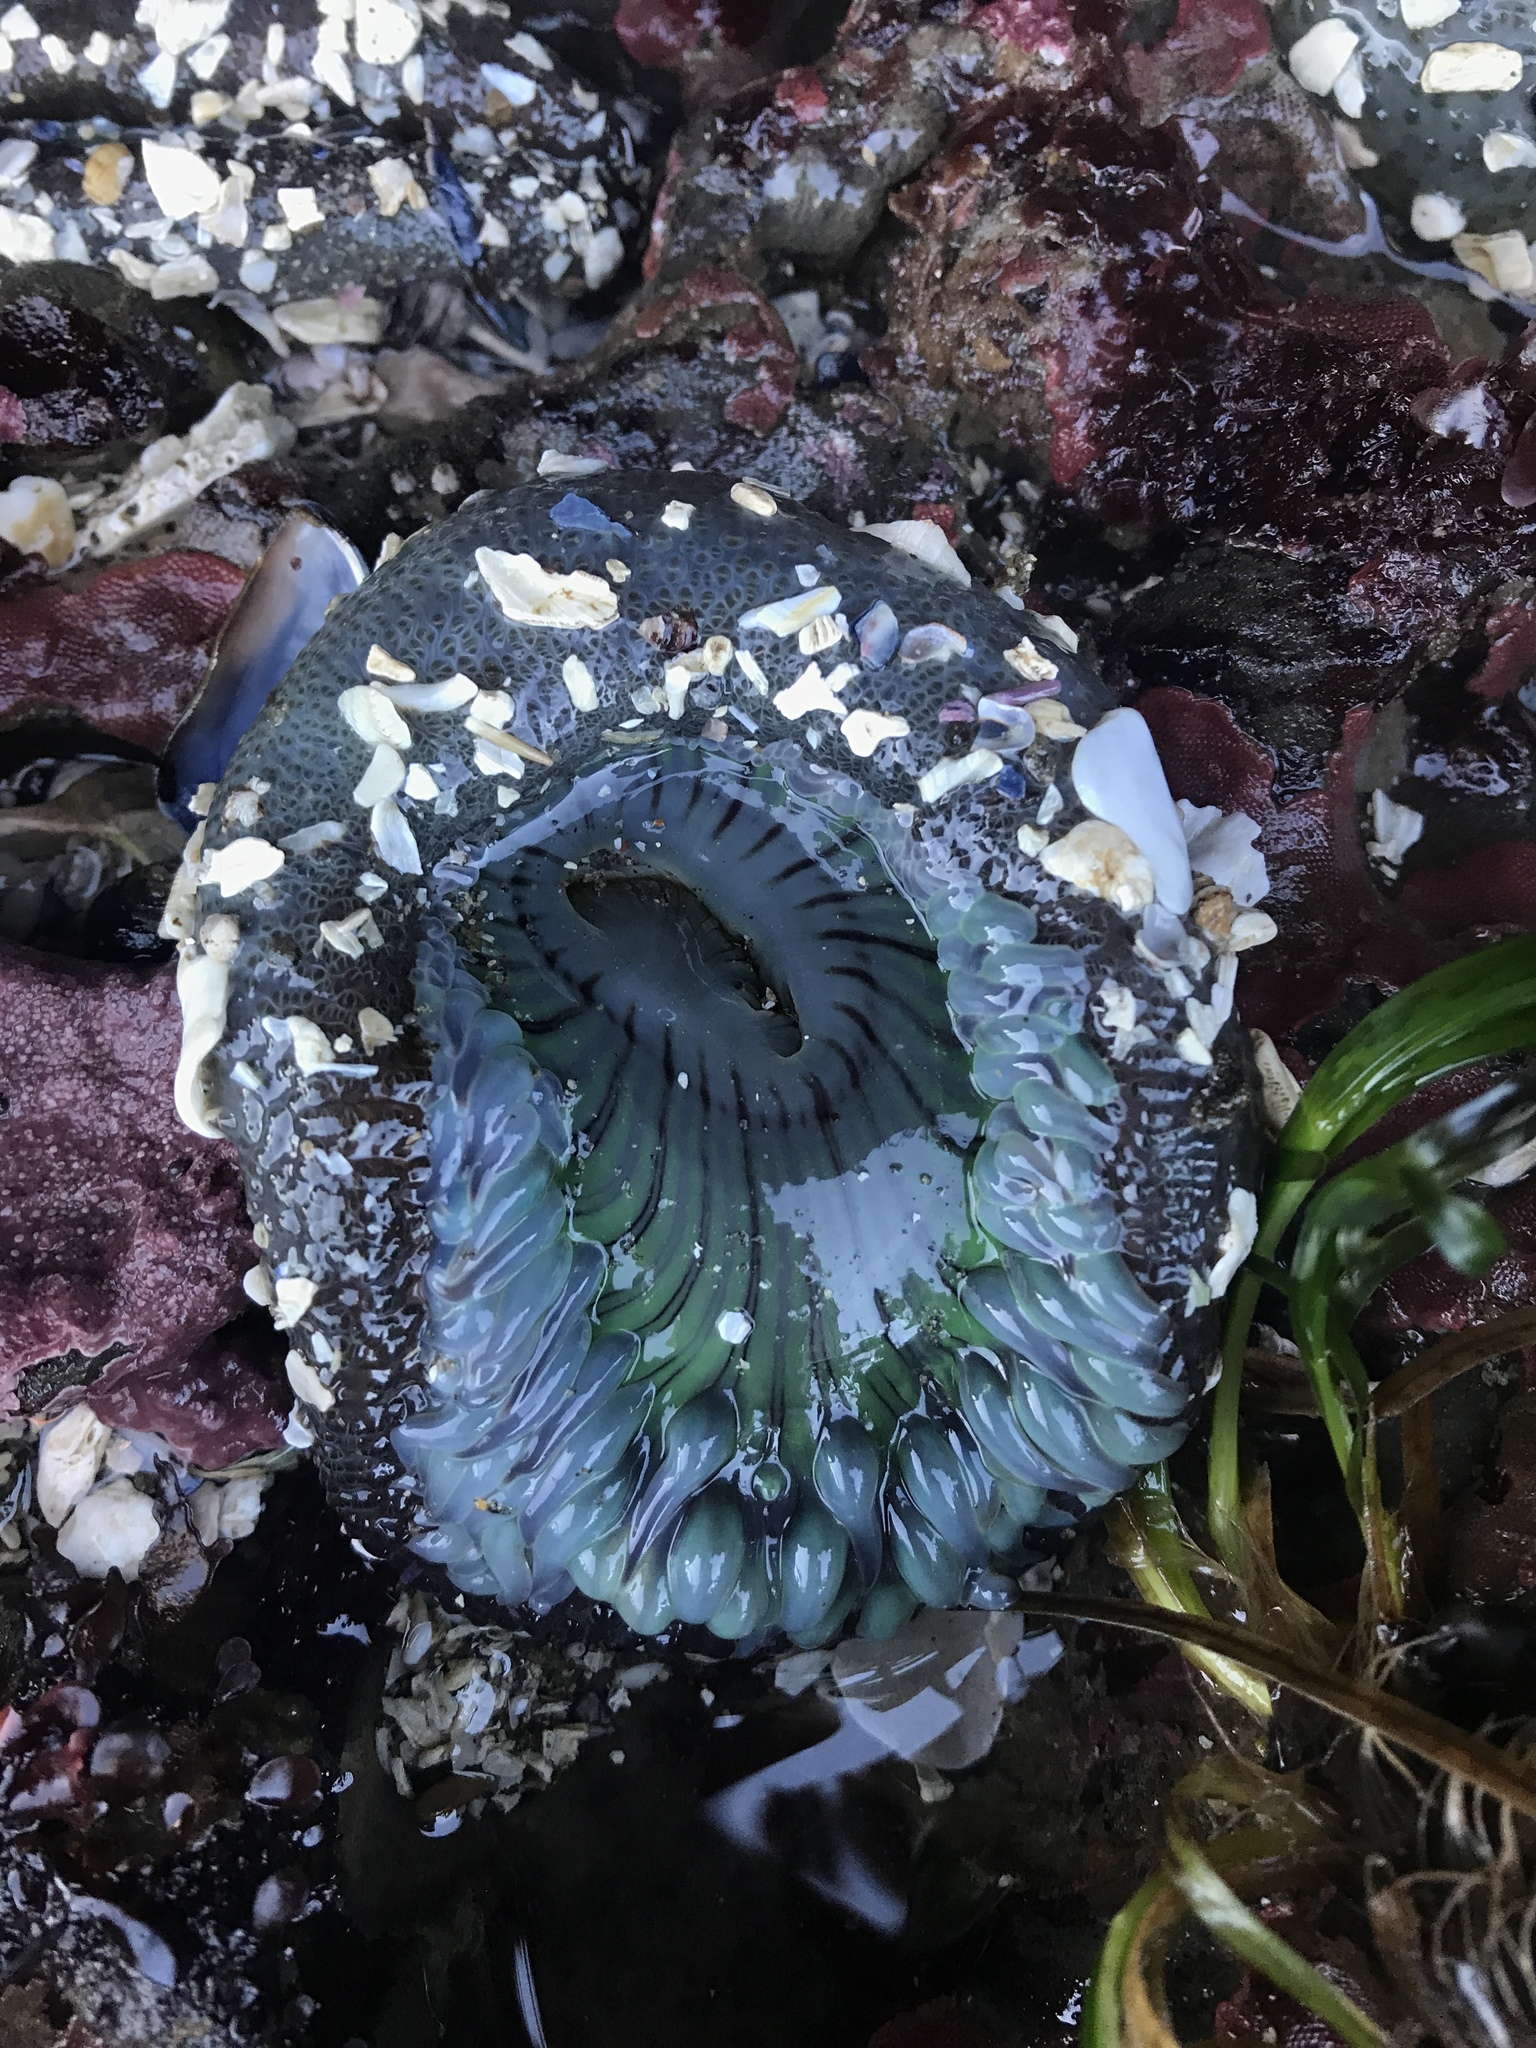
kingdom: Animalia
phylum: Cnidaria
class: Anthozoa
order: Actiniaria
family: Actiniidae
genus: Anthopleura
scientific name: Anthopleura sola
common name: Sun anemone
